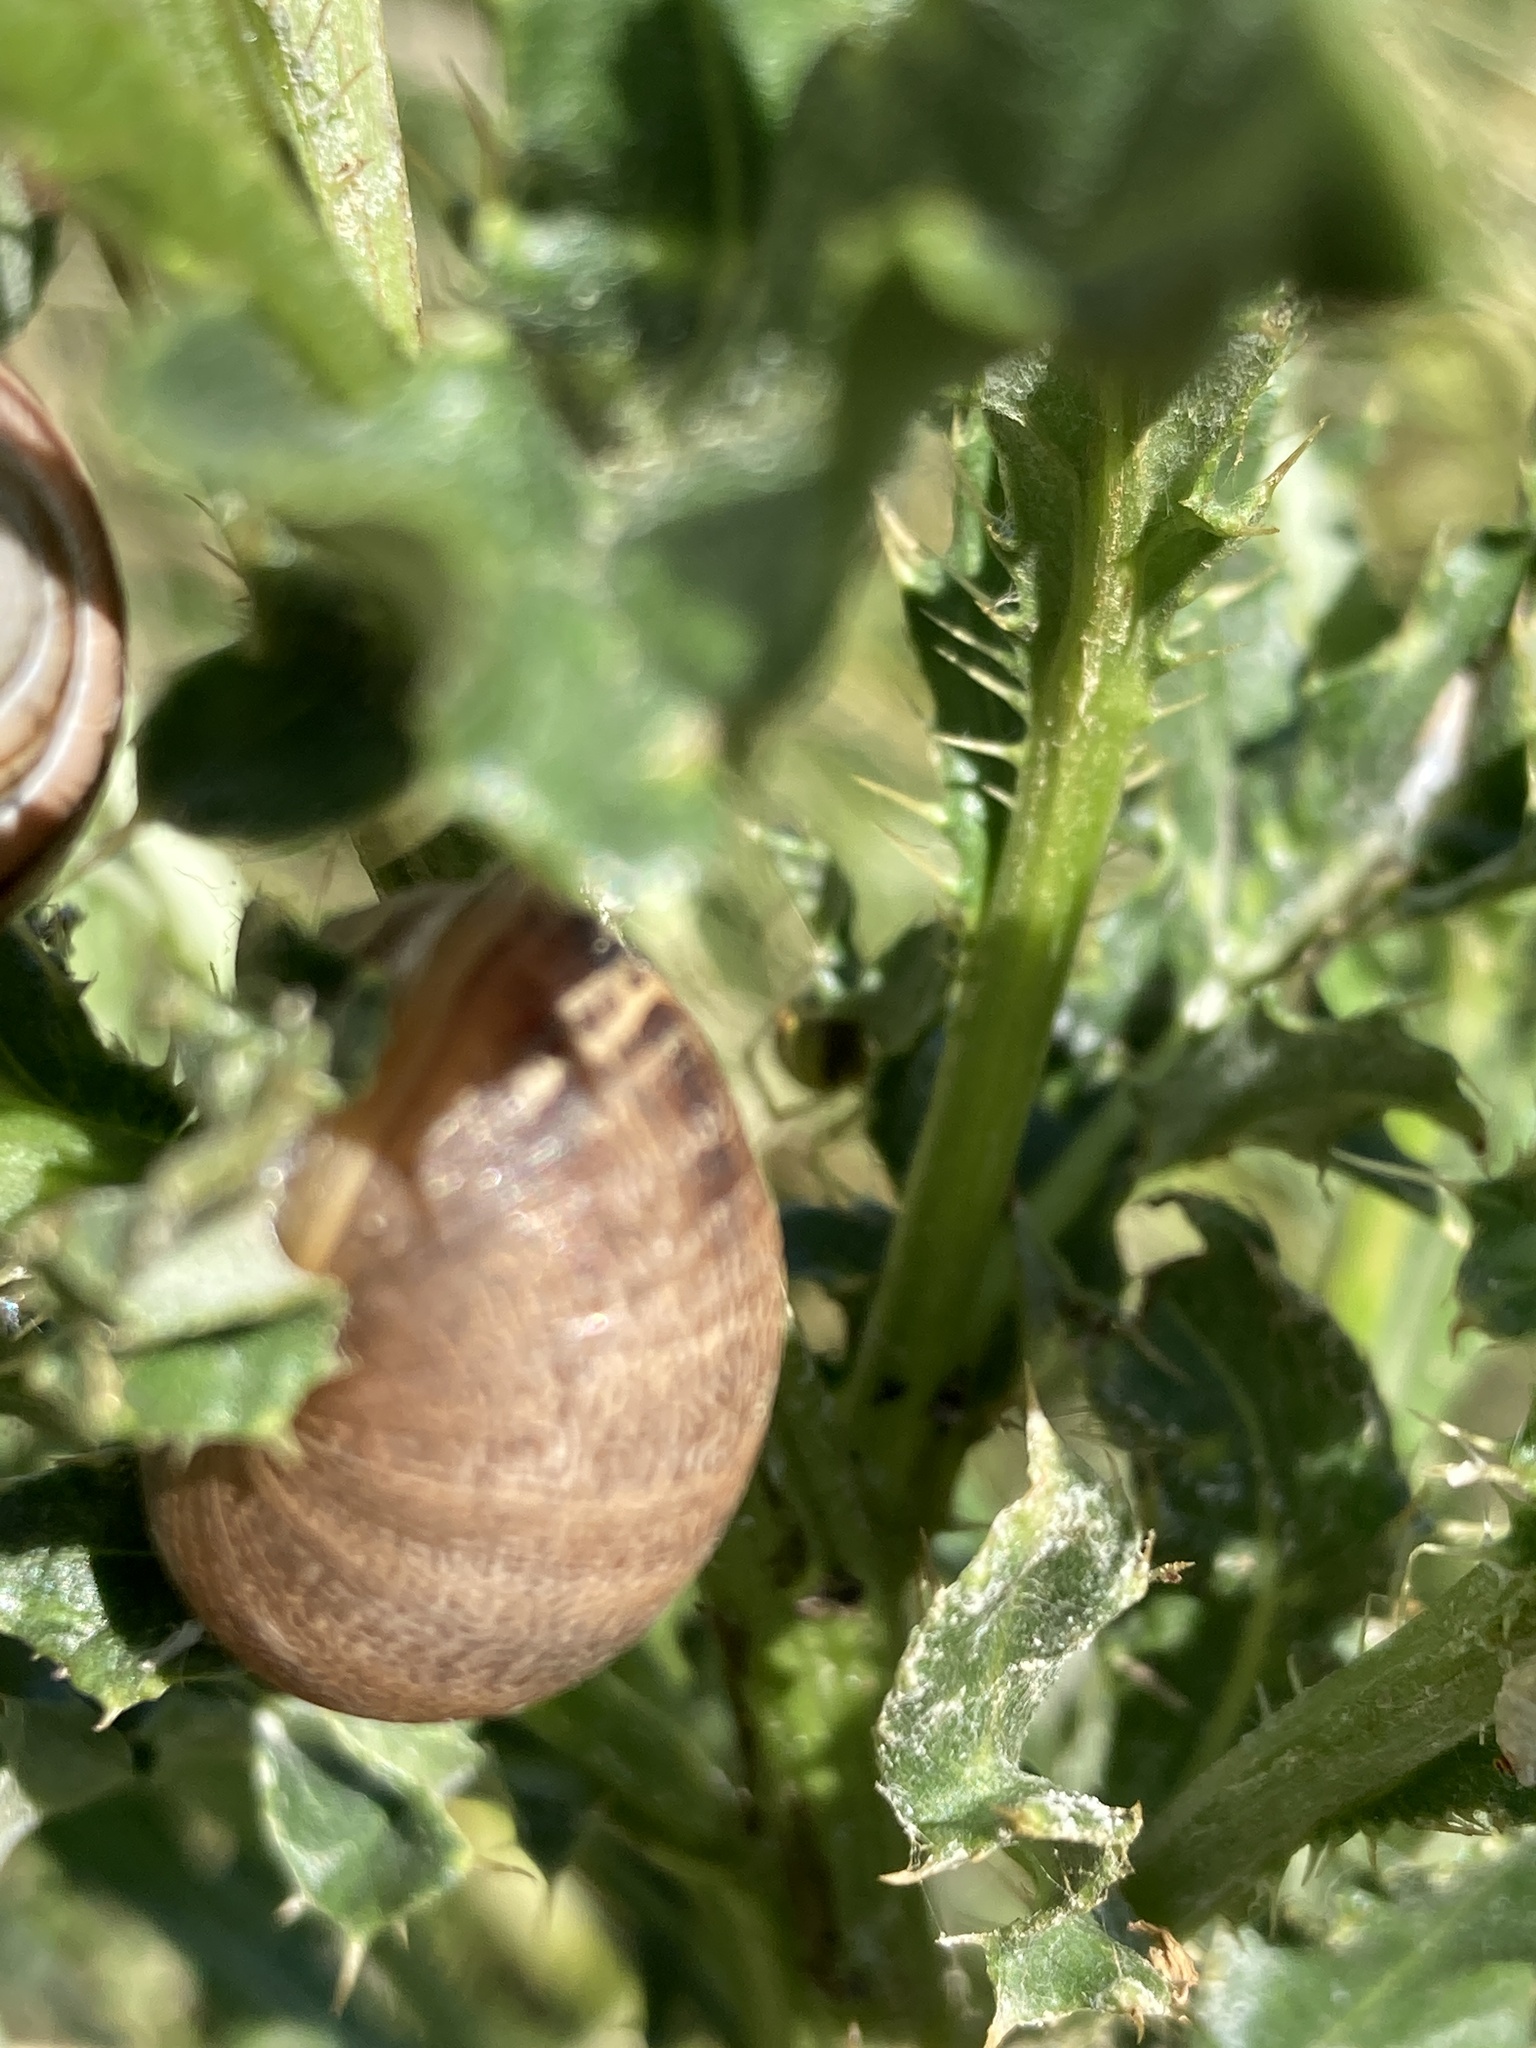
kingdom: Animalia
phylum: Mollusca
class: Gastropoda
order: Stylommatophora
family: Helicidae
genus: Cornu
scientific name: Cornu aspersum
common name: Brown garden snail
